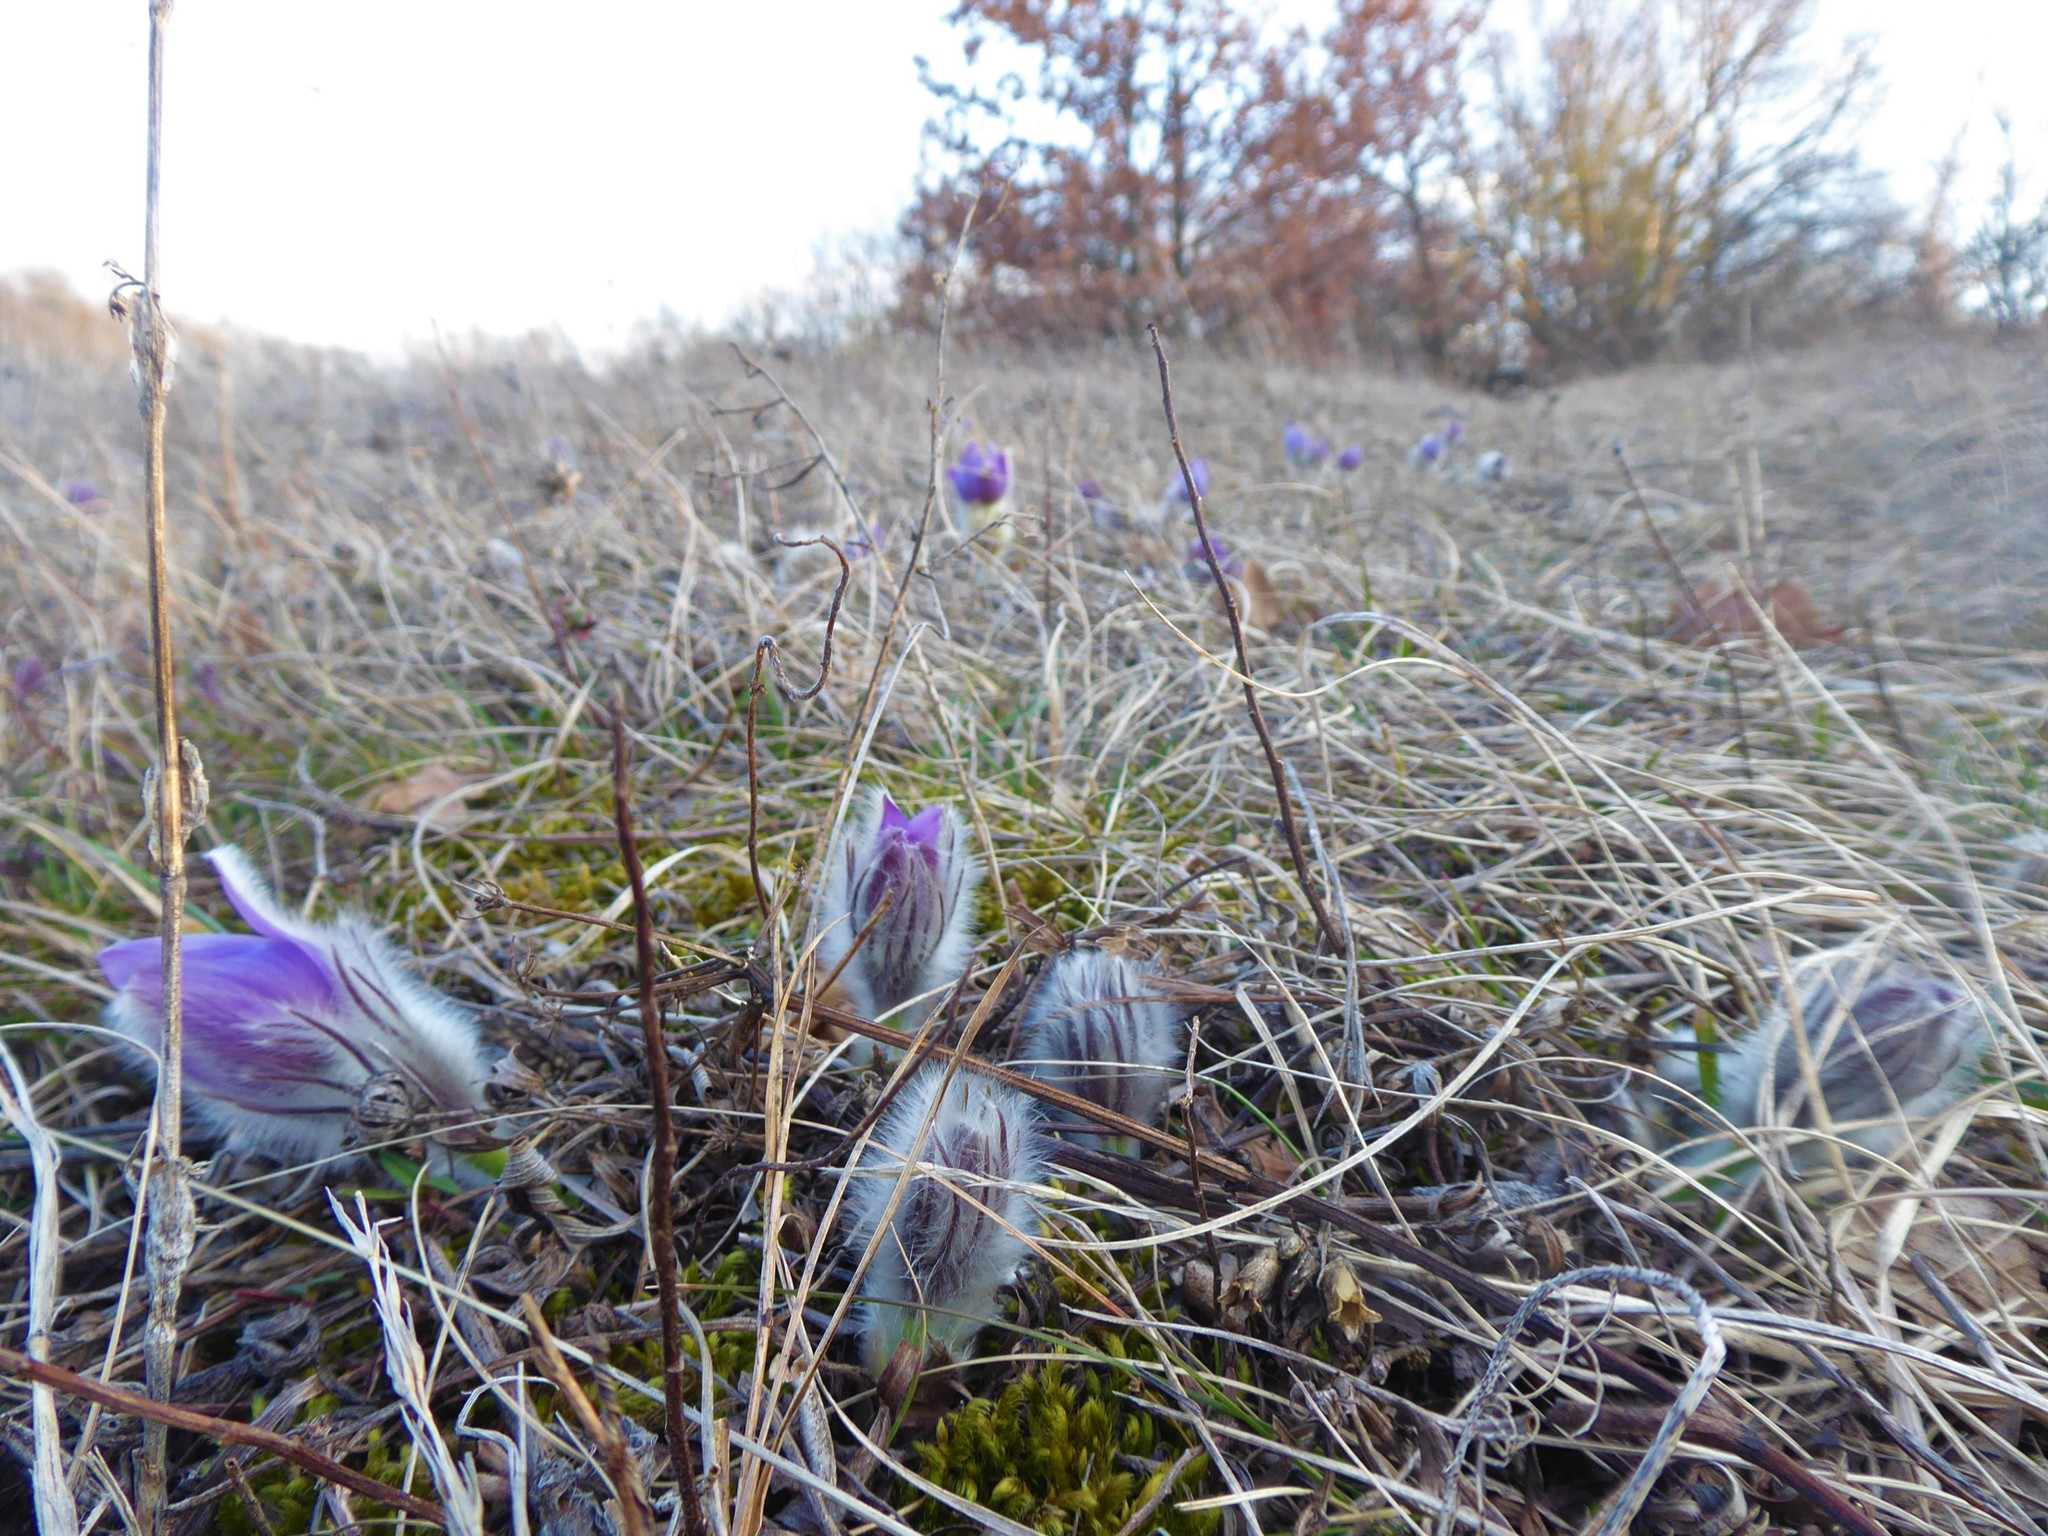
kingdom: Plantae
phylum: Tracheophyta
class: Magnoliopsida
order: Ranunculales
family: Ranunculaceae
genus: Pulsatilla
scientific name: Pulsatilla grandis
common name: Greater pasque flower
